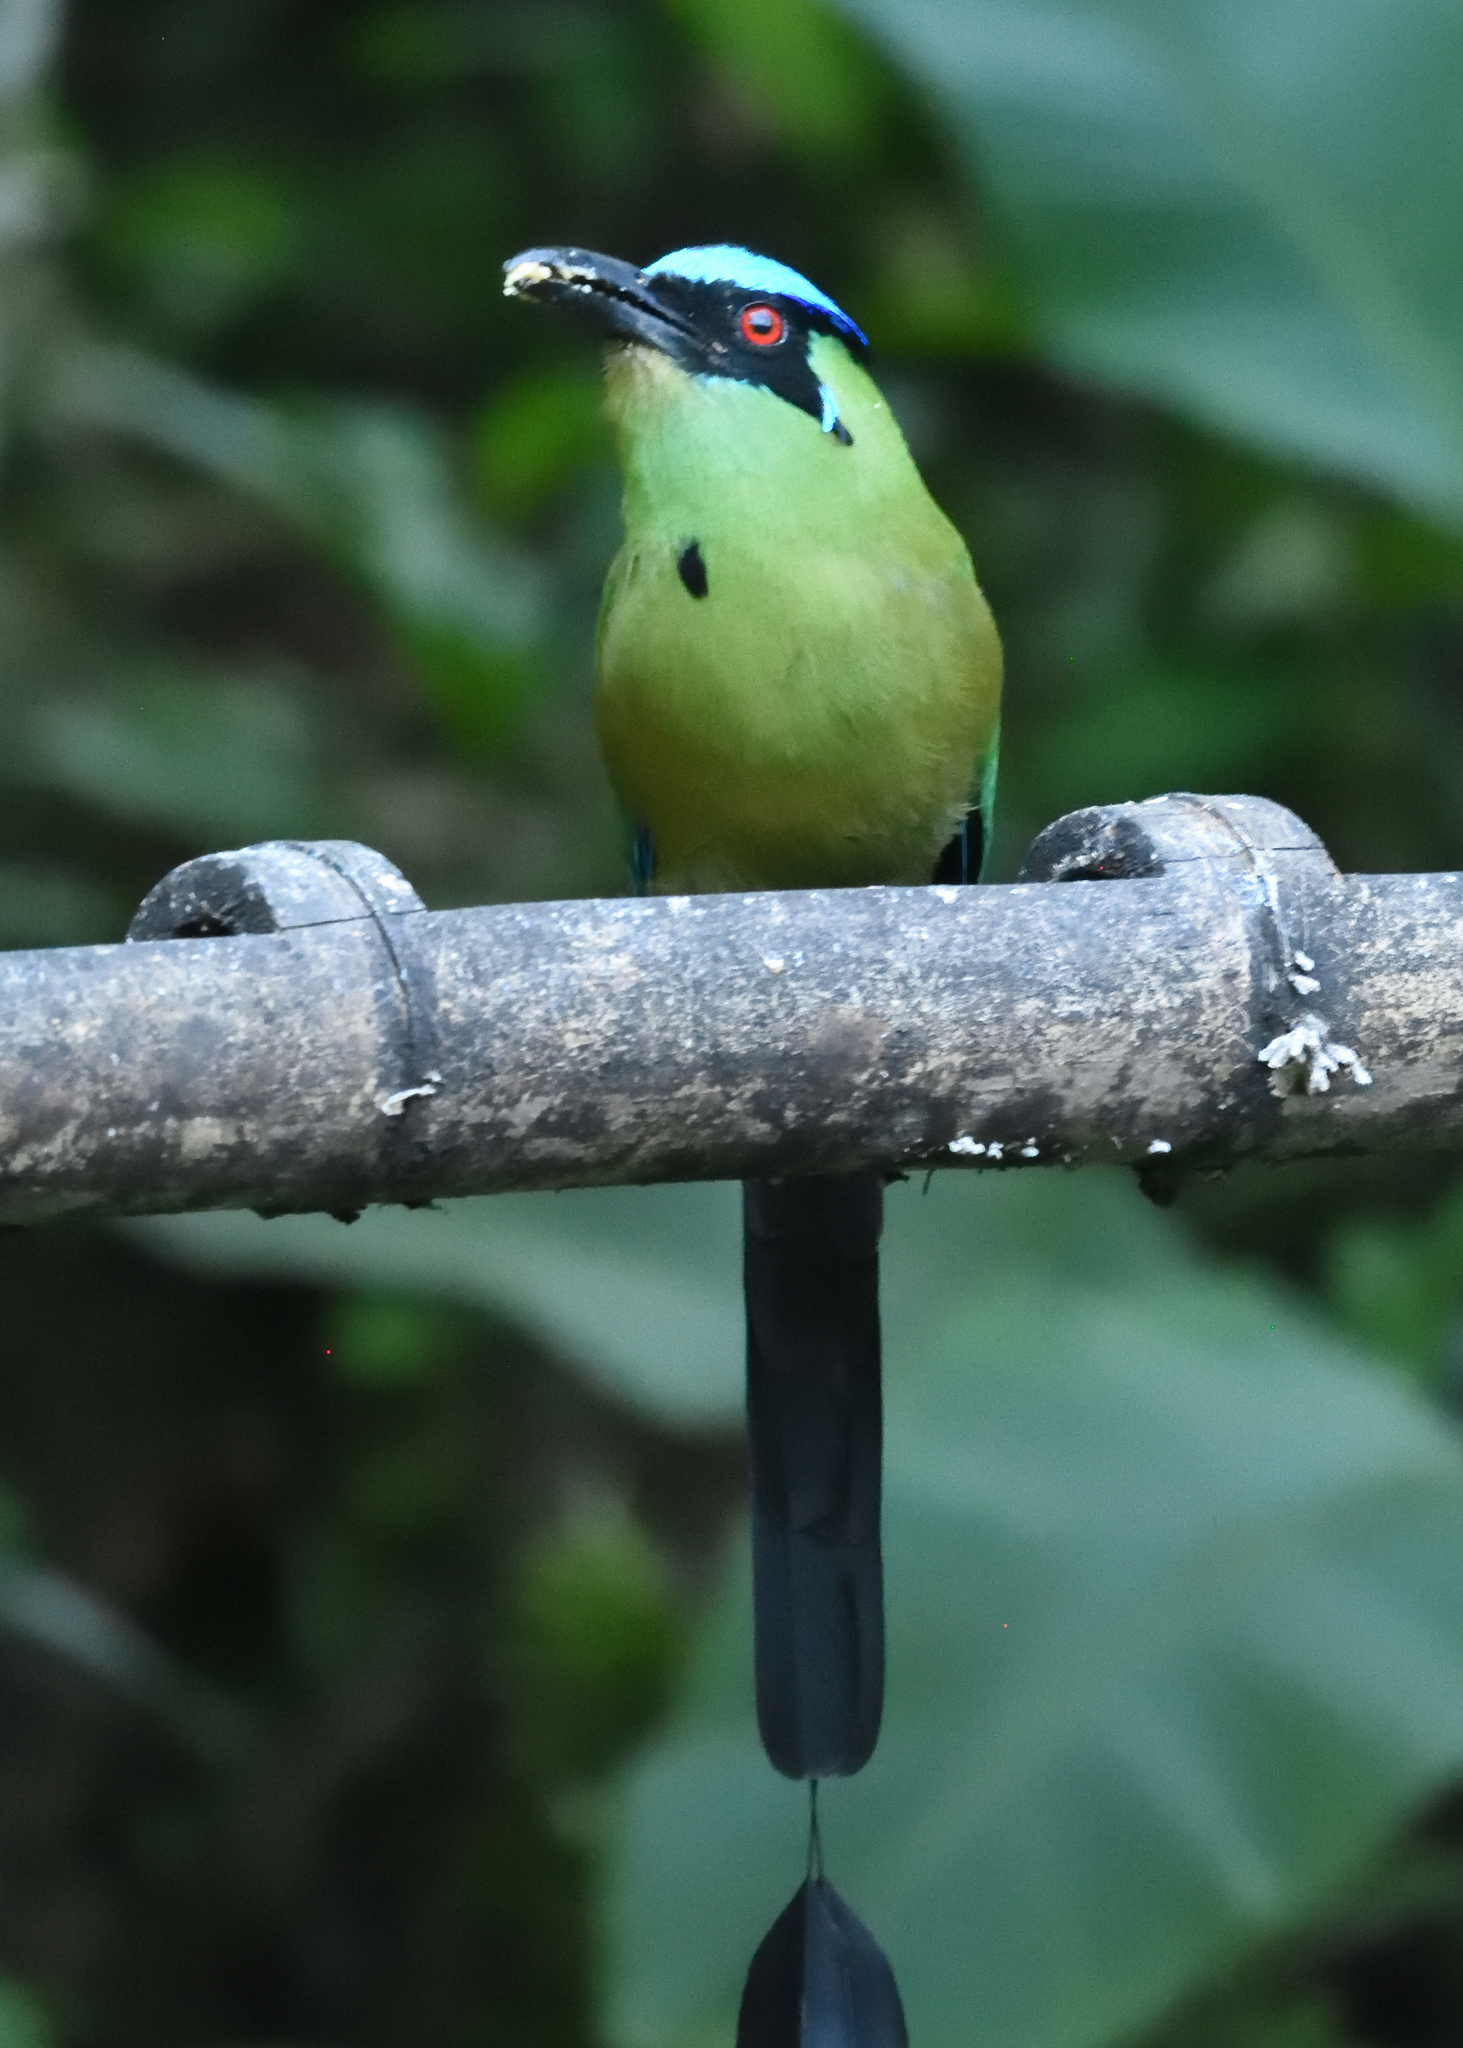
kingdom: Animalia
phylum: Chordata
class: Aves
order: Coraciiformes
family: Momotidae
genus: Momotus
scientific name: Momotus aequatorialis
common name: Andean motmot
